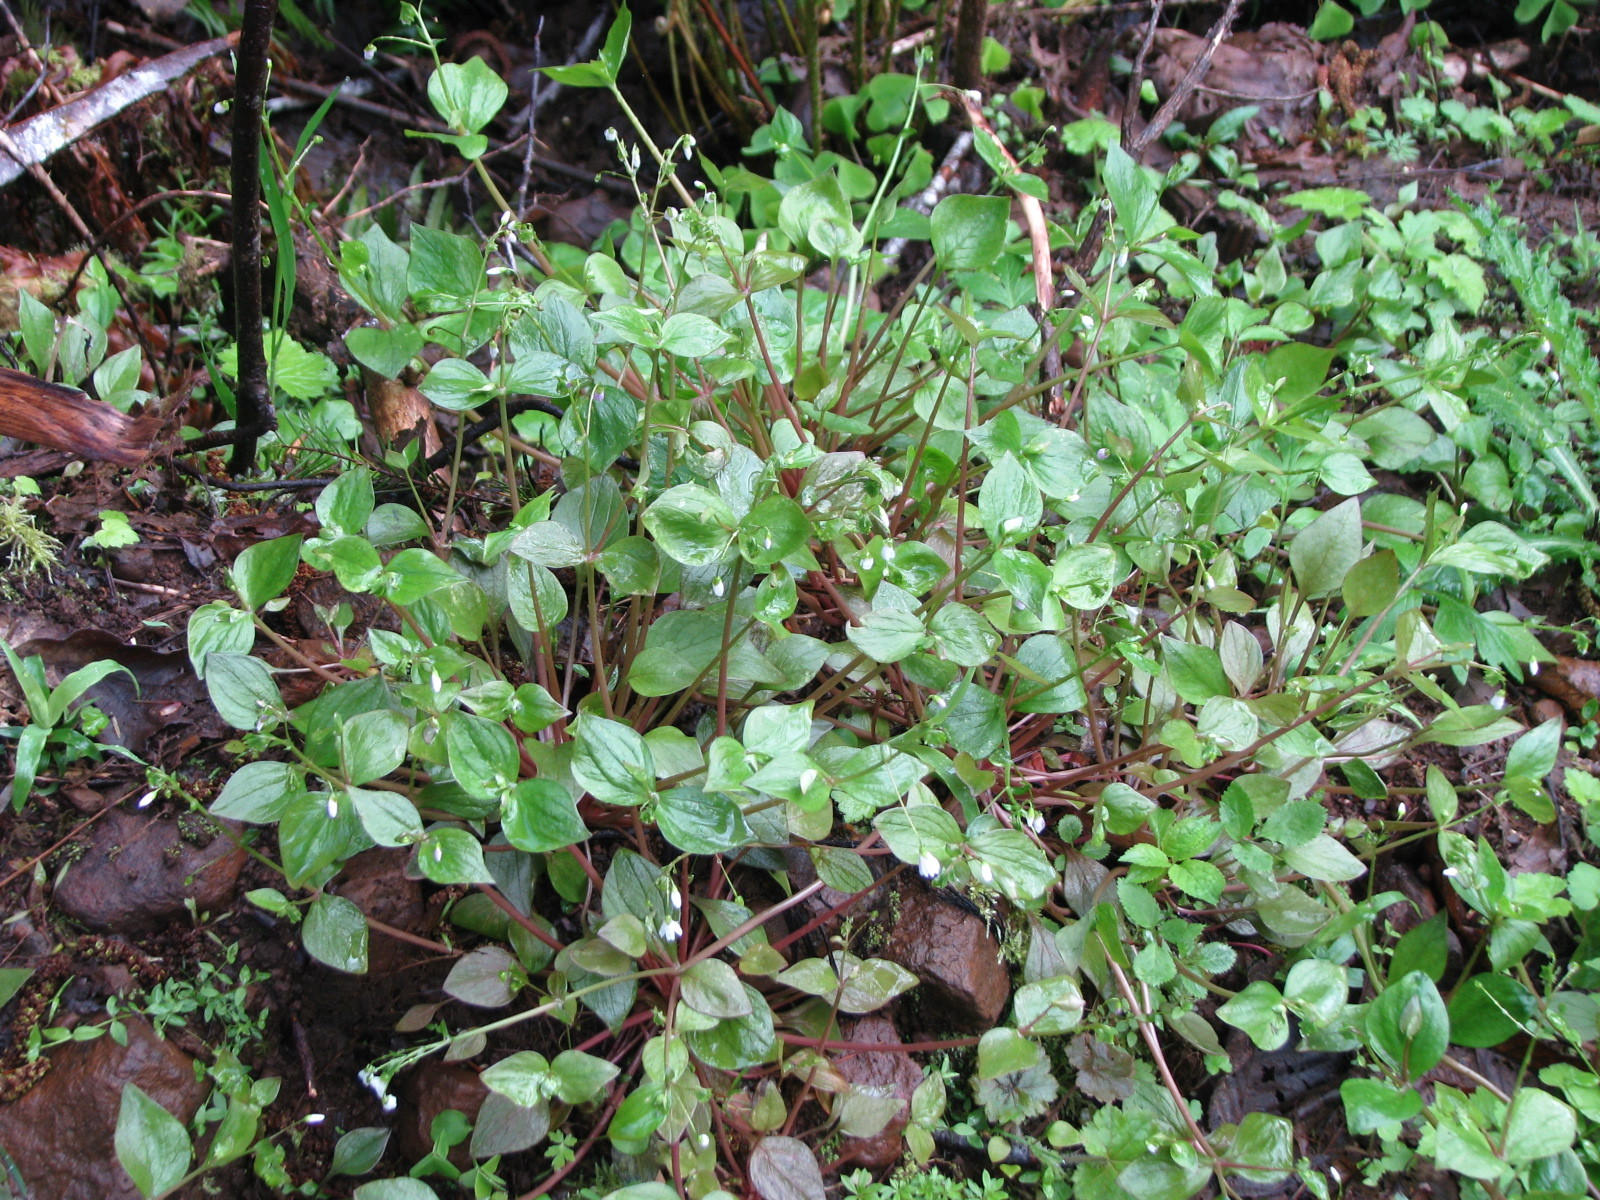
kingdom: Plantae
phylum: Tracheophyta
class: Magnoliopsida
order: Caryophyllales
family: Montiaceae
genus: Claytonia
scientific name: Claytonia sibirica
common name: Pink purslane
